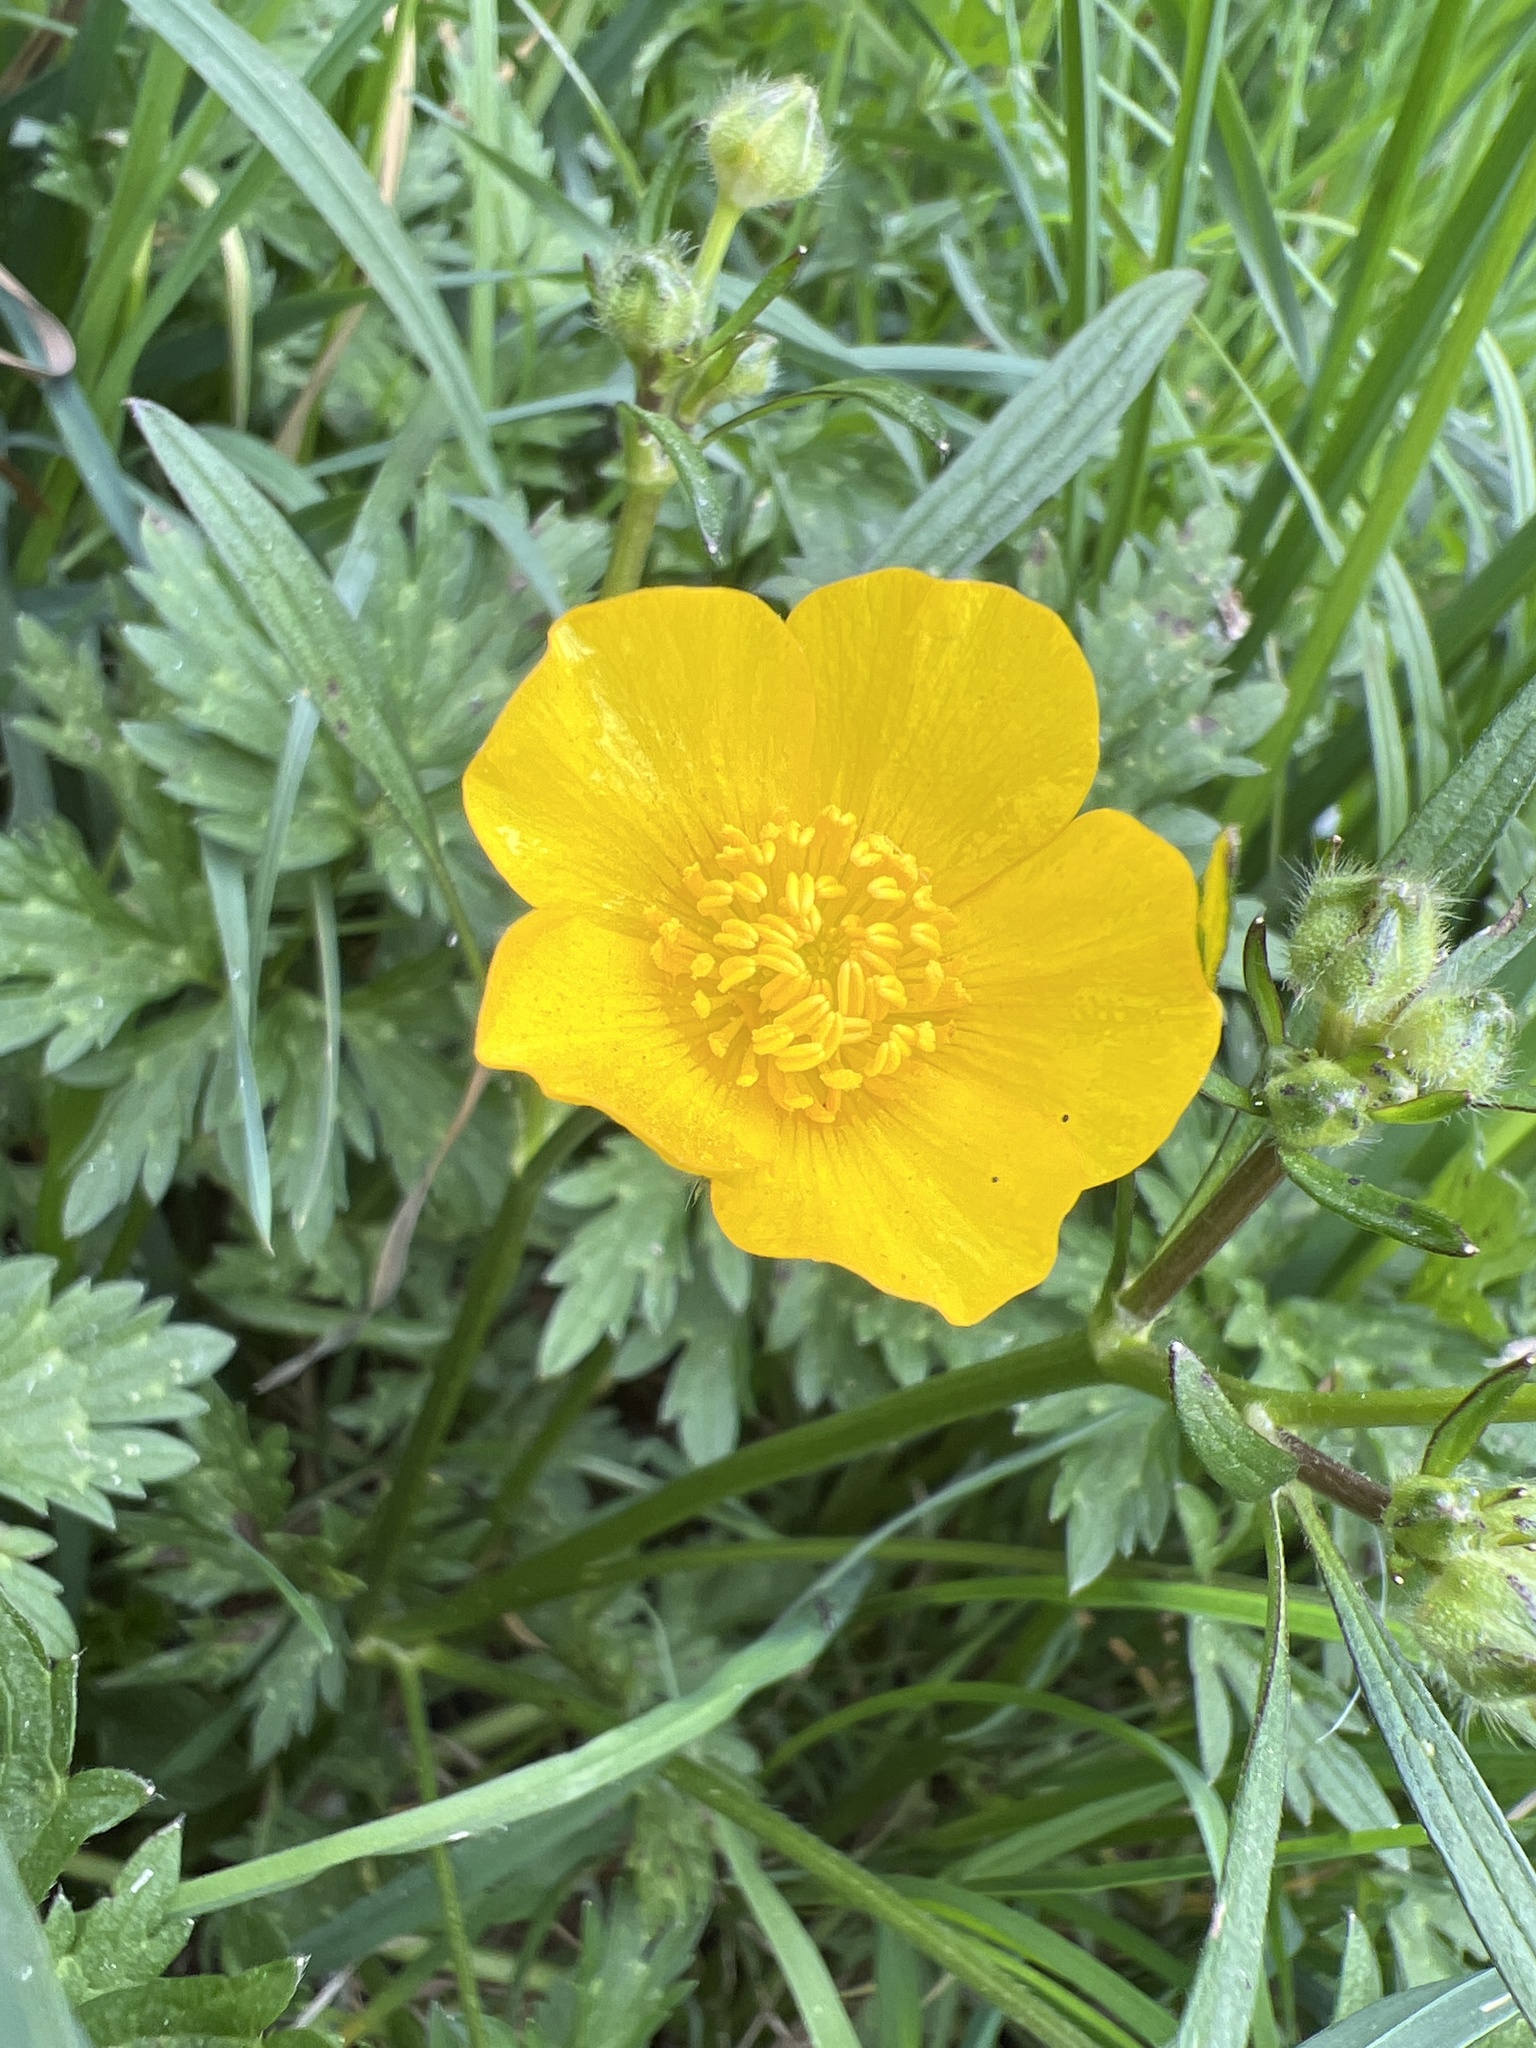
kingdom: Plantae
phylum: Tracheophyta
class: Magnoliopsida
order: Ranunculales
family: Ranunculaceae
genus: Ranunculus
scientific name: Ranunculus repens
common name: Creeping buttercup
